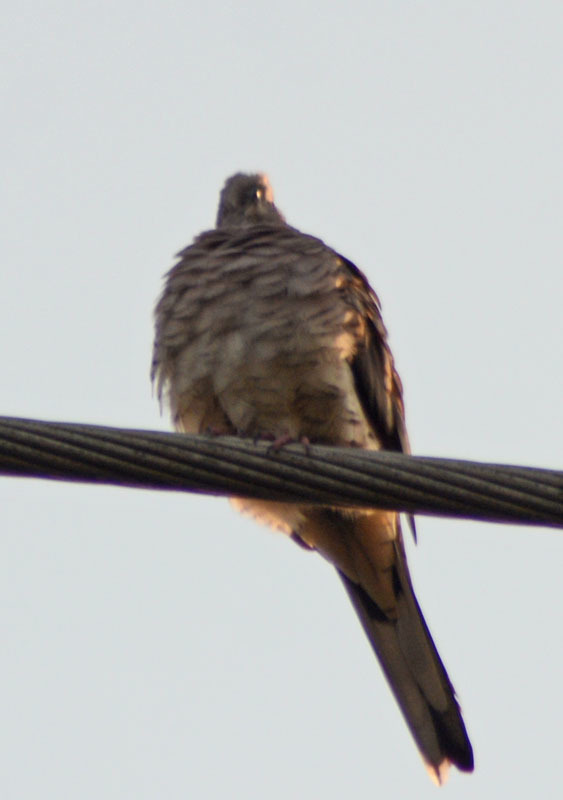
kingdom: Animalia
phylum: Chordata
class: Aves
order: Columbiformes
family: Columbidae
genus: Columbina
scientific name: Columbina inca
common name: Inca dove
